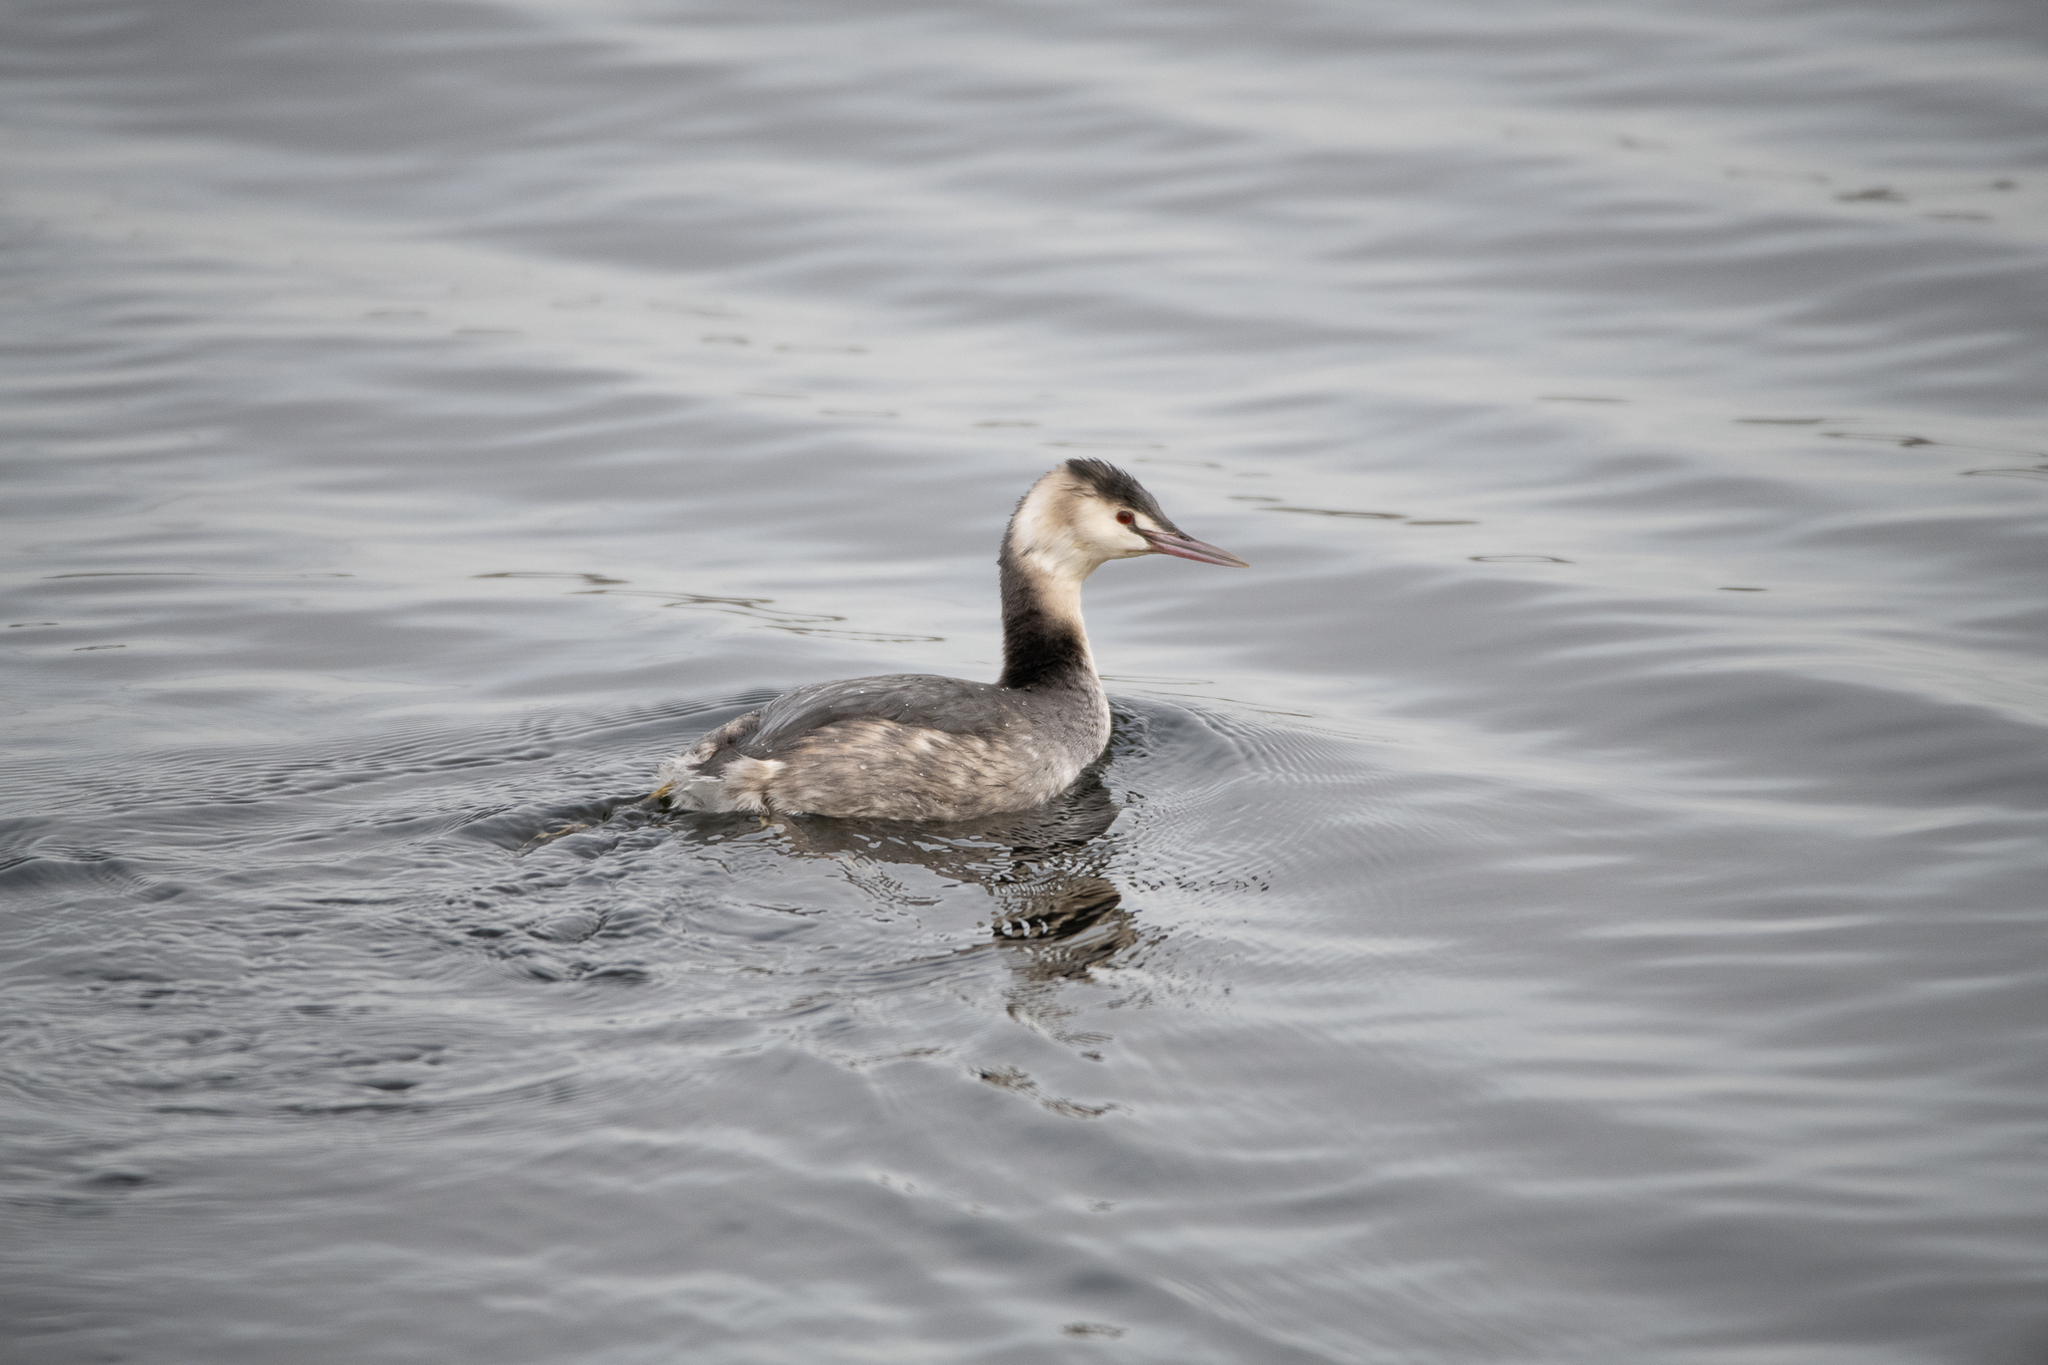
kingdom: Animalia
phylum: Chordata
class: Aves
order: Podicipediformes
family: Podicipedidae
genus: Podiceps
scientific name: Podiceps cristatus
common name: Great crested grebe
